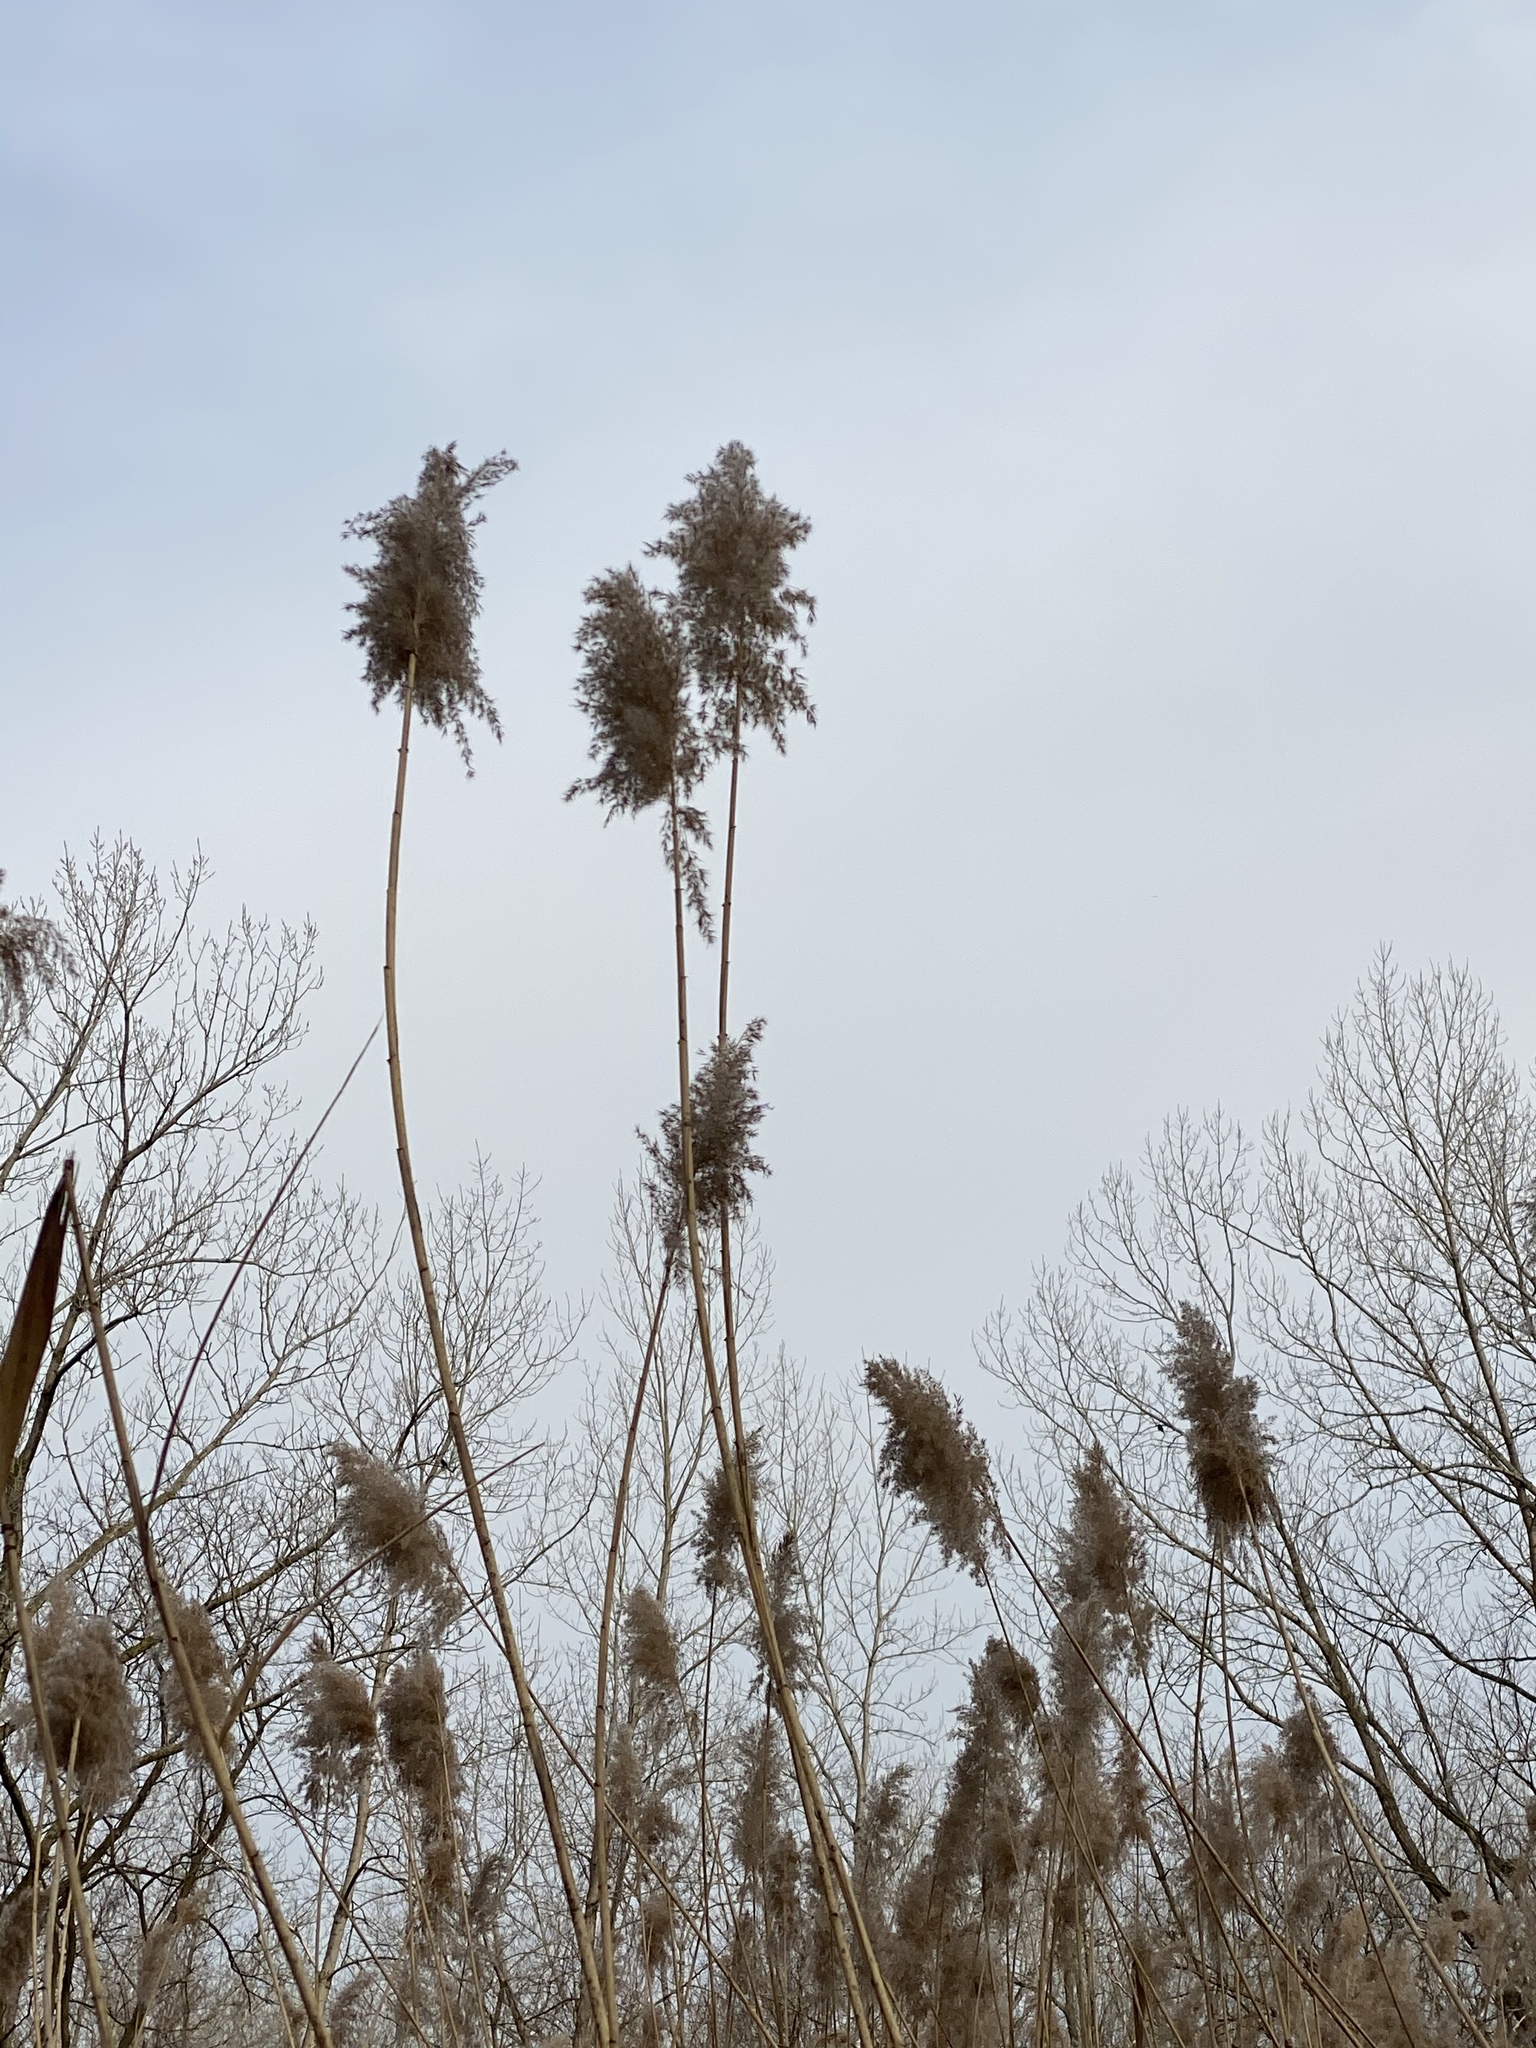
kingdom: Plantae
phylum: Tracheophyta
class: Liliopsida
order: Poales
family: Poaceae
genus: Phragmites
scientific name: Phragmites australis
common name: Common reed
